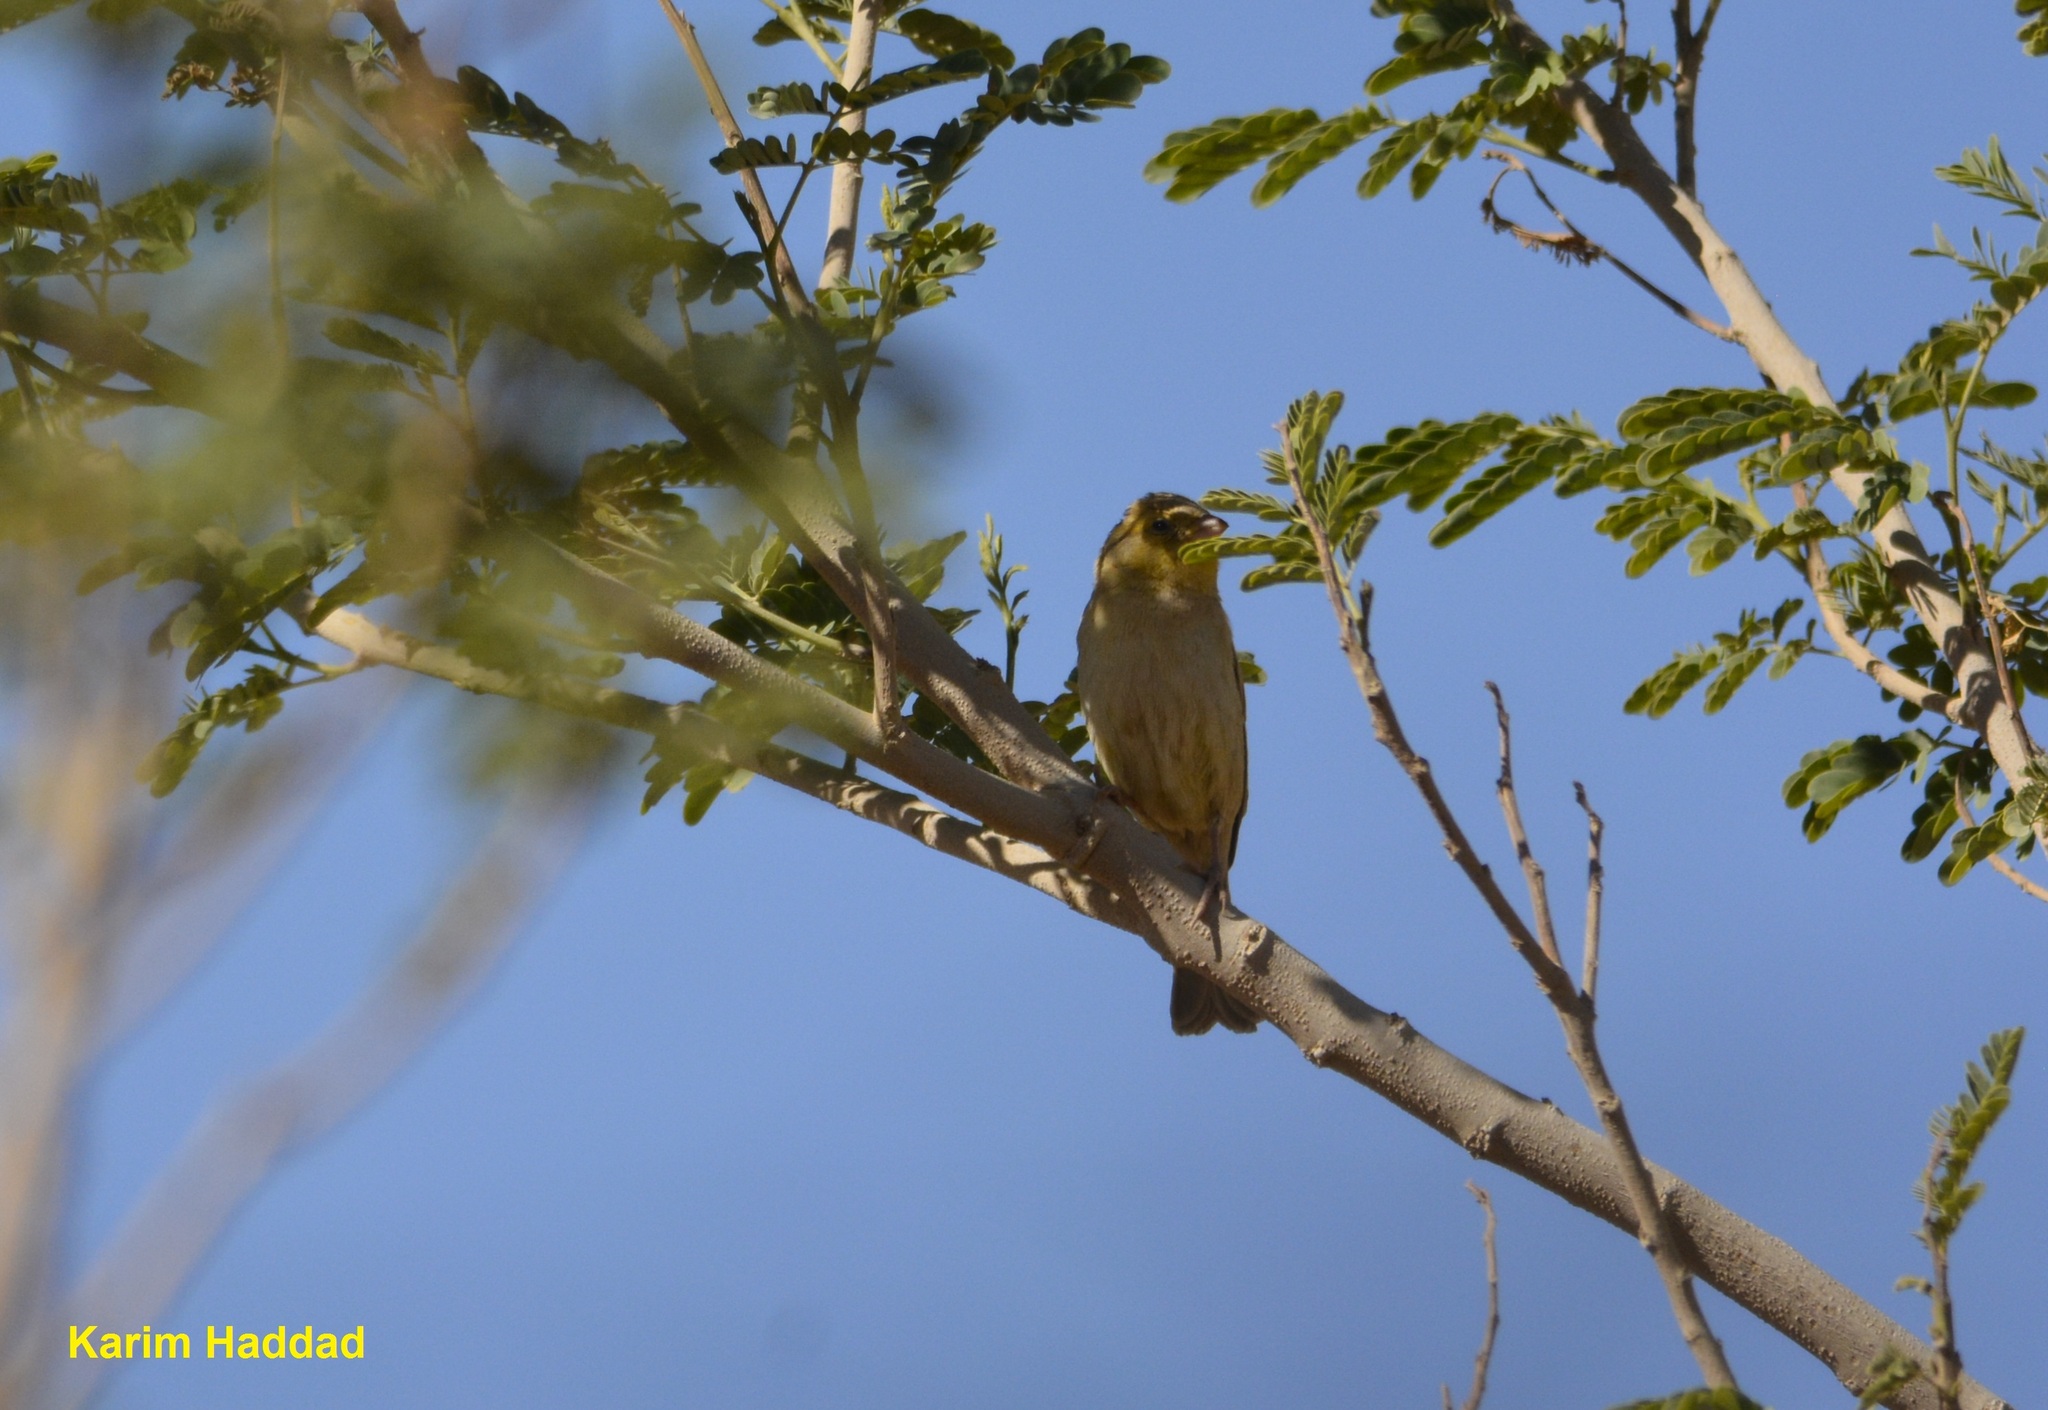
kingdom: Animalia
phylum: Chordata
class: Aves
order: Passeriformes
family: Passeridae
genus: Passer
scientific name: Passer luteus
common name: Sudan golden sparrow
